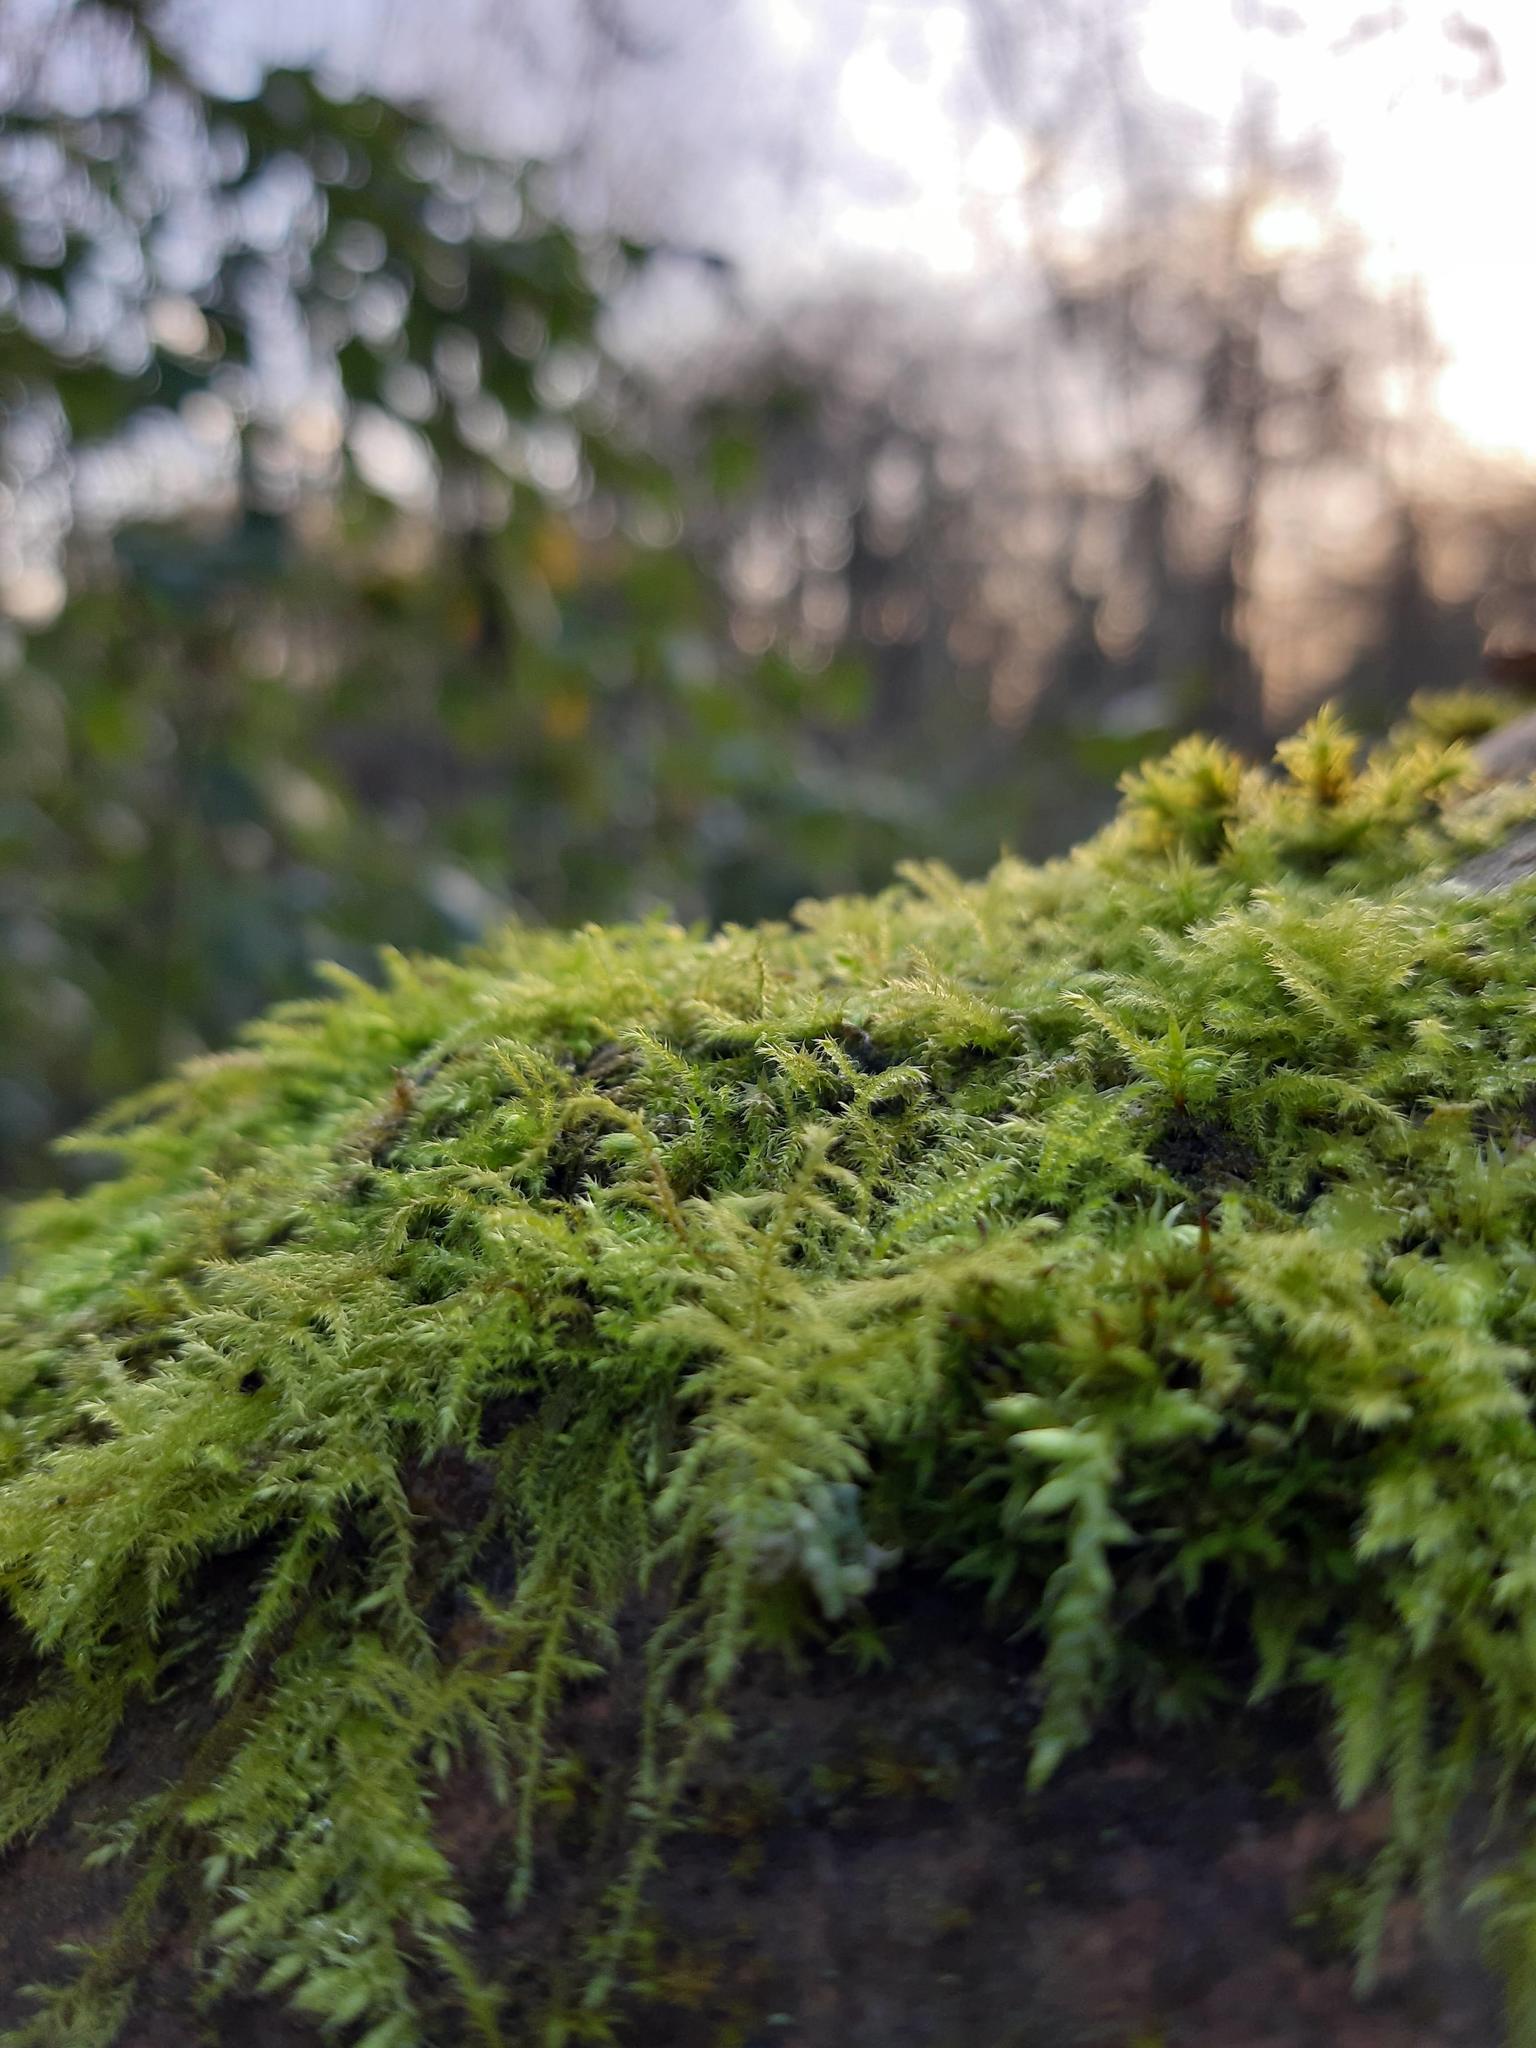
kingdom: Plantae
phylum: Bryophyta
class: Bryopsida
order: Hypnales
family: Brachytheciaceae
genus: Kindbergia
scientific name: Kindbergia praelonga
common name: Slender beaked moss
